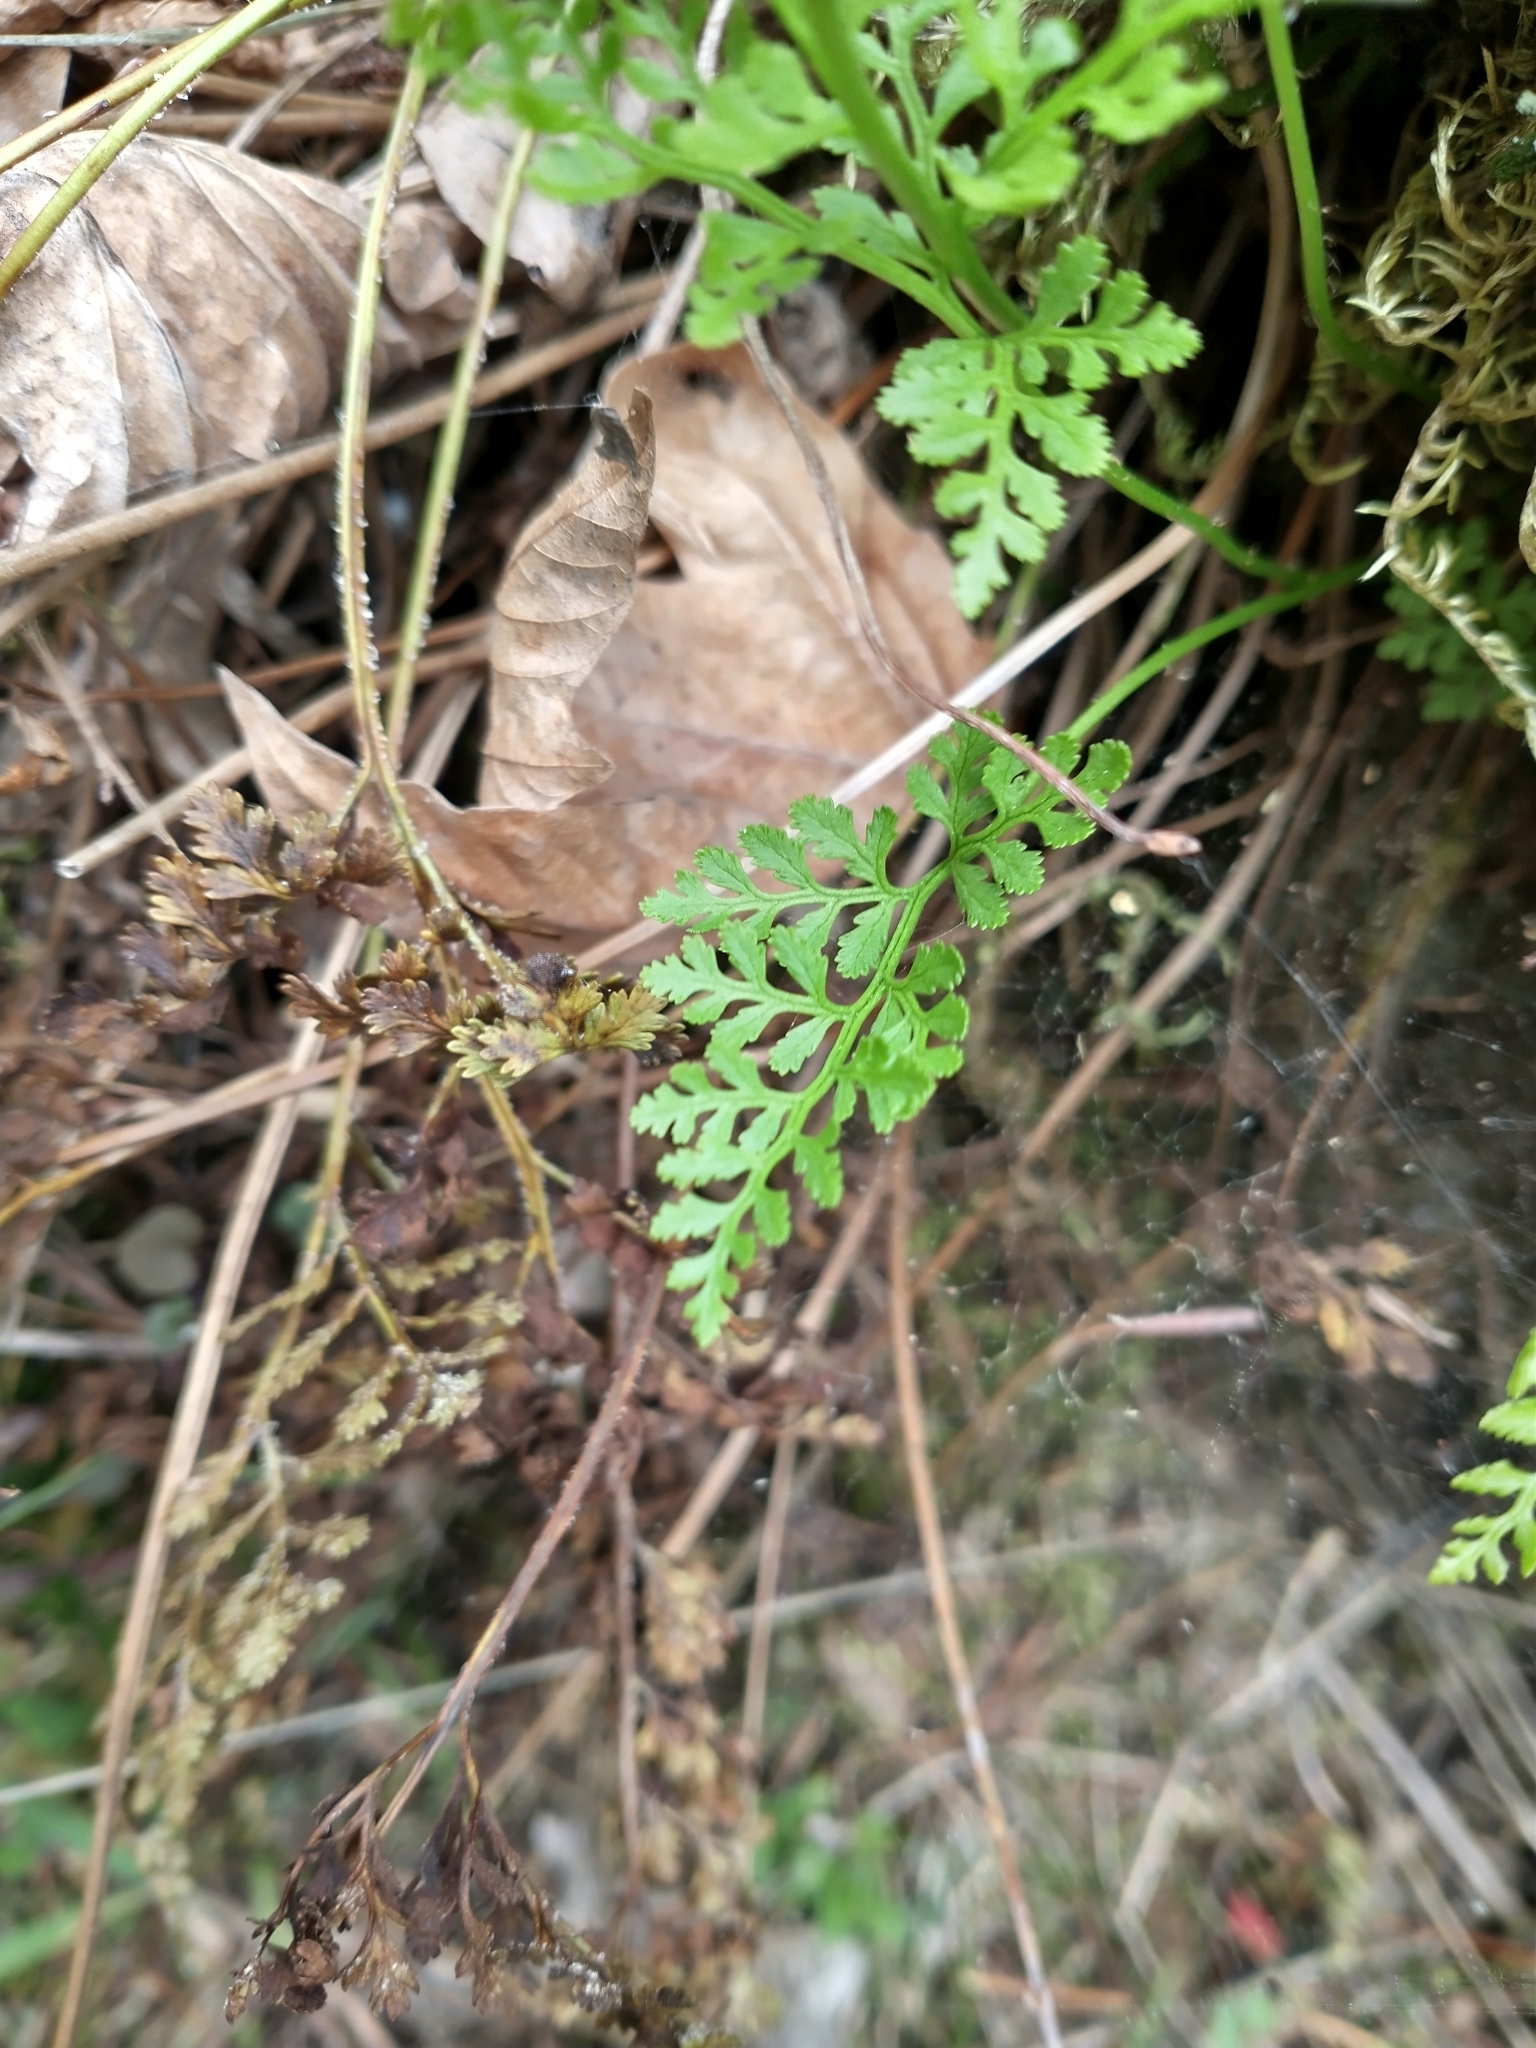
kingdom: Plantae
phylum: Tracheophyta
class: Polypodiopsida
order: Polypodiales
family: Pteridaceae
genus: Cryptogramma
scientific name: Cryptogramma acrostichoides
